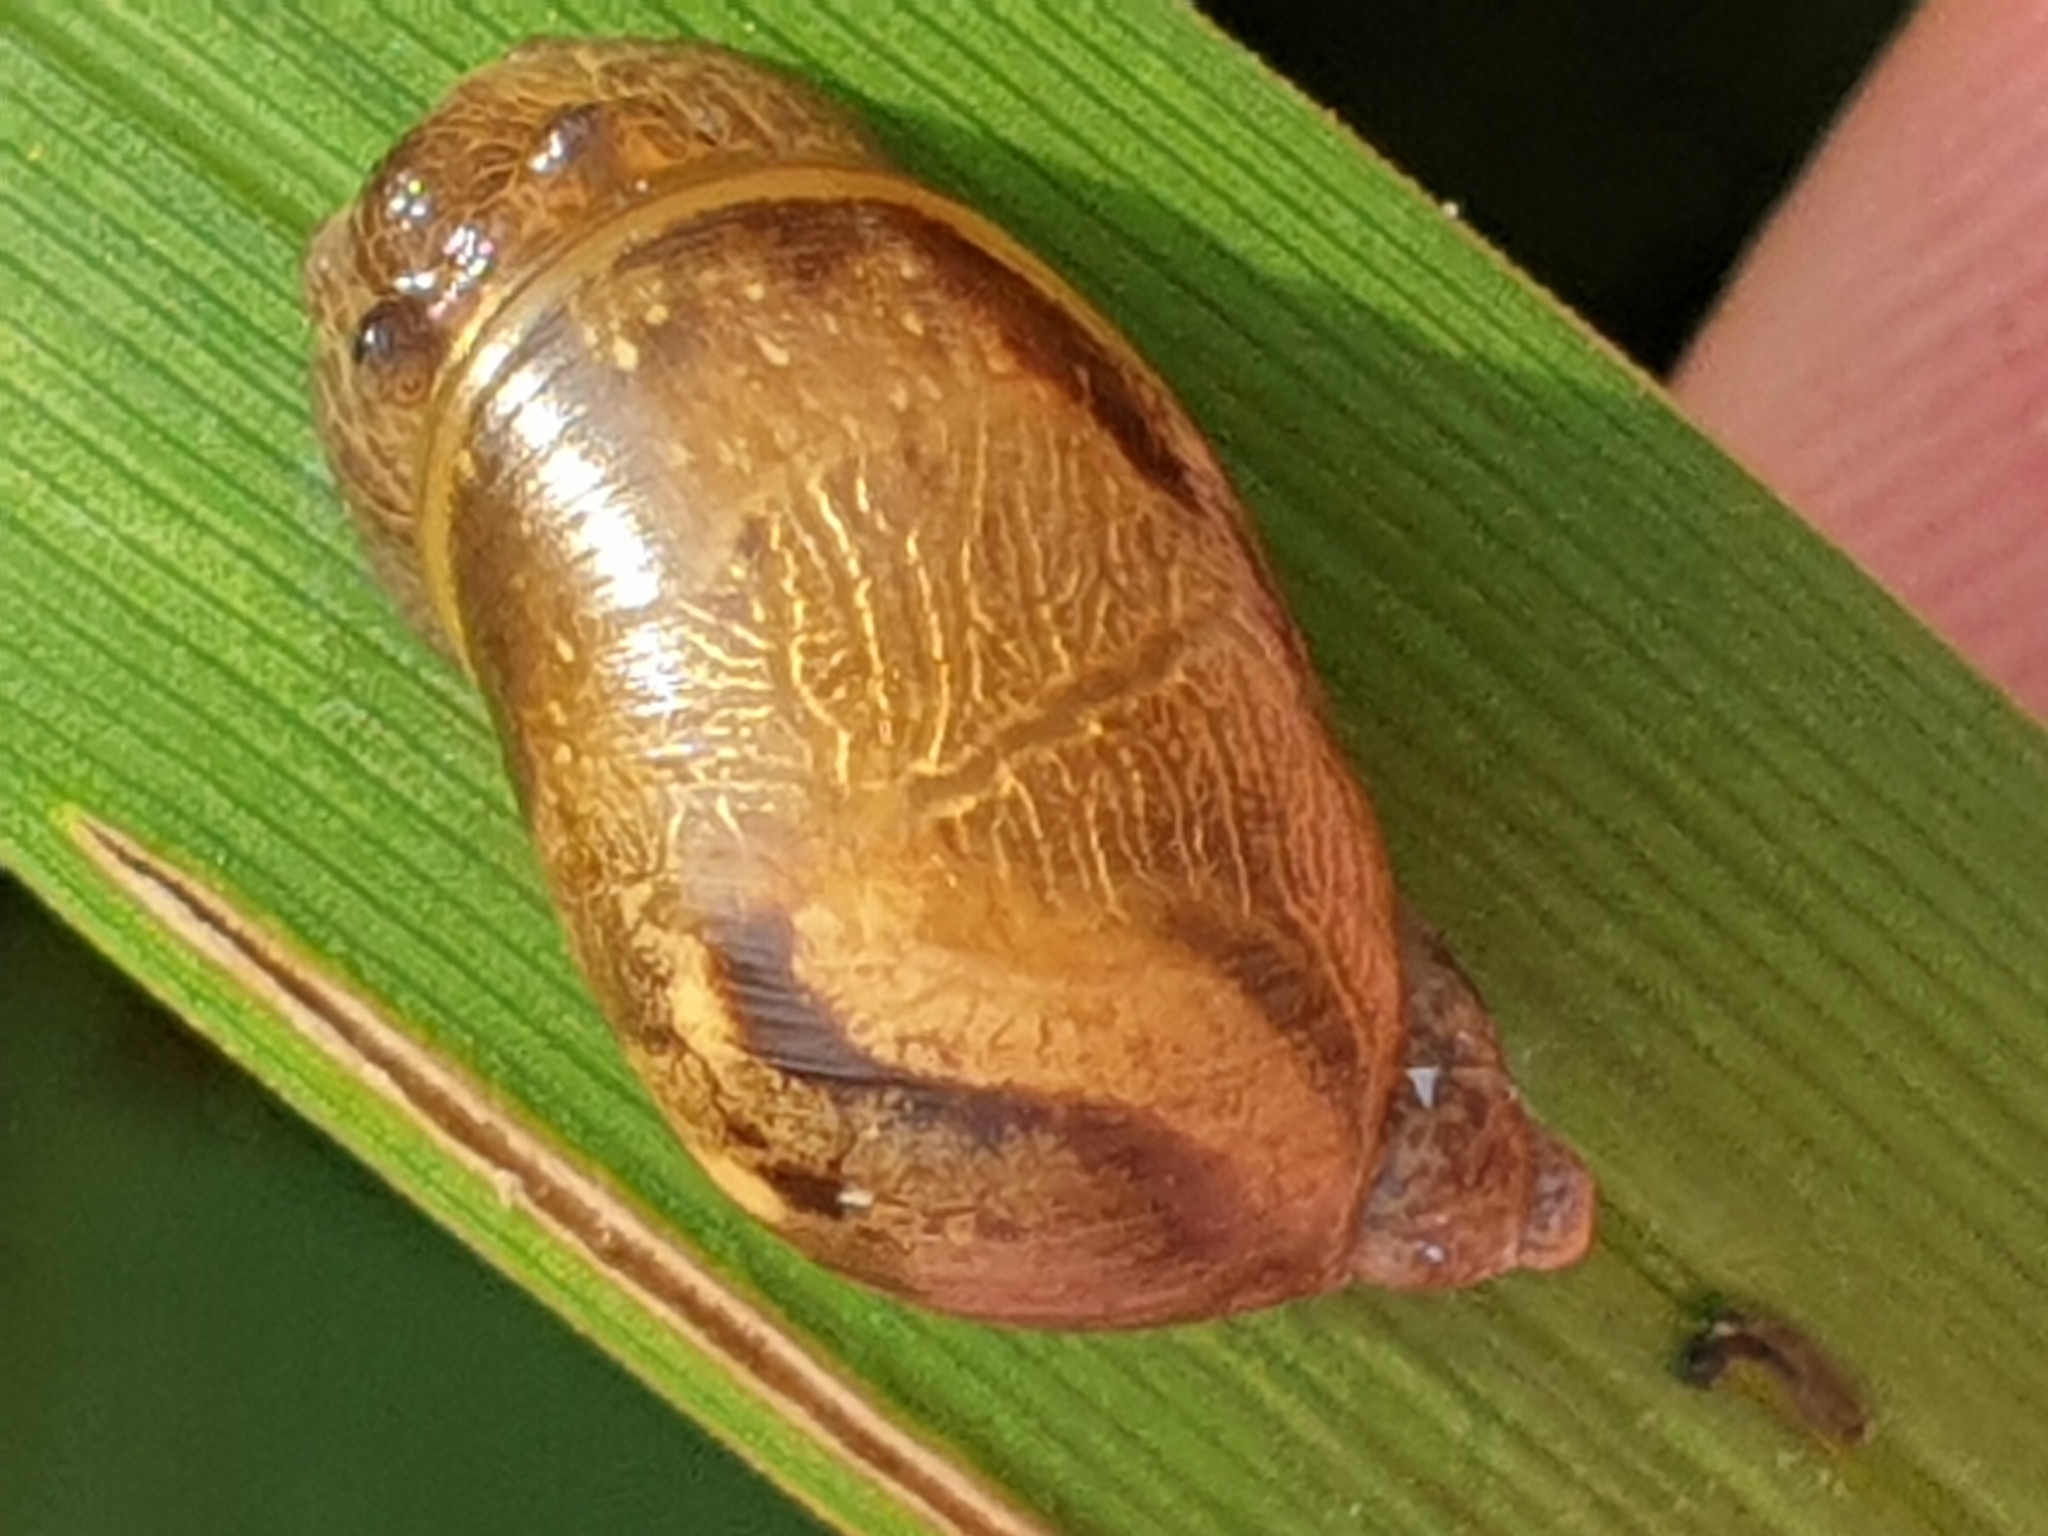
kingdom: Animalia
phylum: Mollusca
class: Gastropoda
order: Stylommatophora
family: Succineidae
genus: Succinea
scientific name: Succinea putris
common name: European ambersnail
